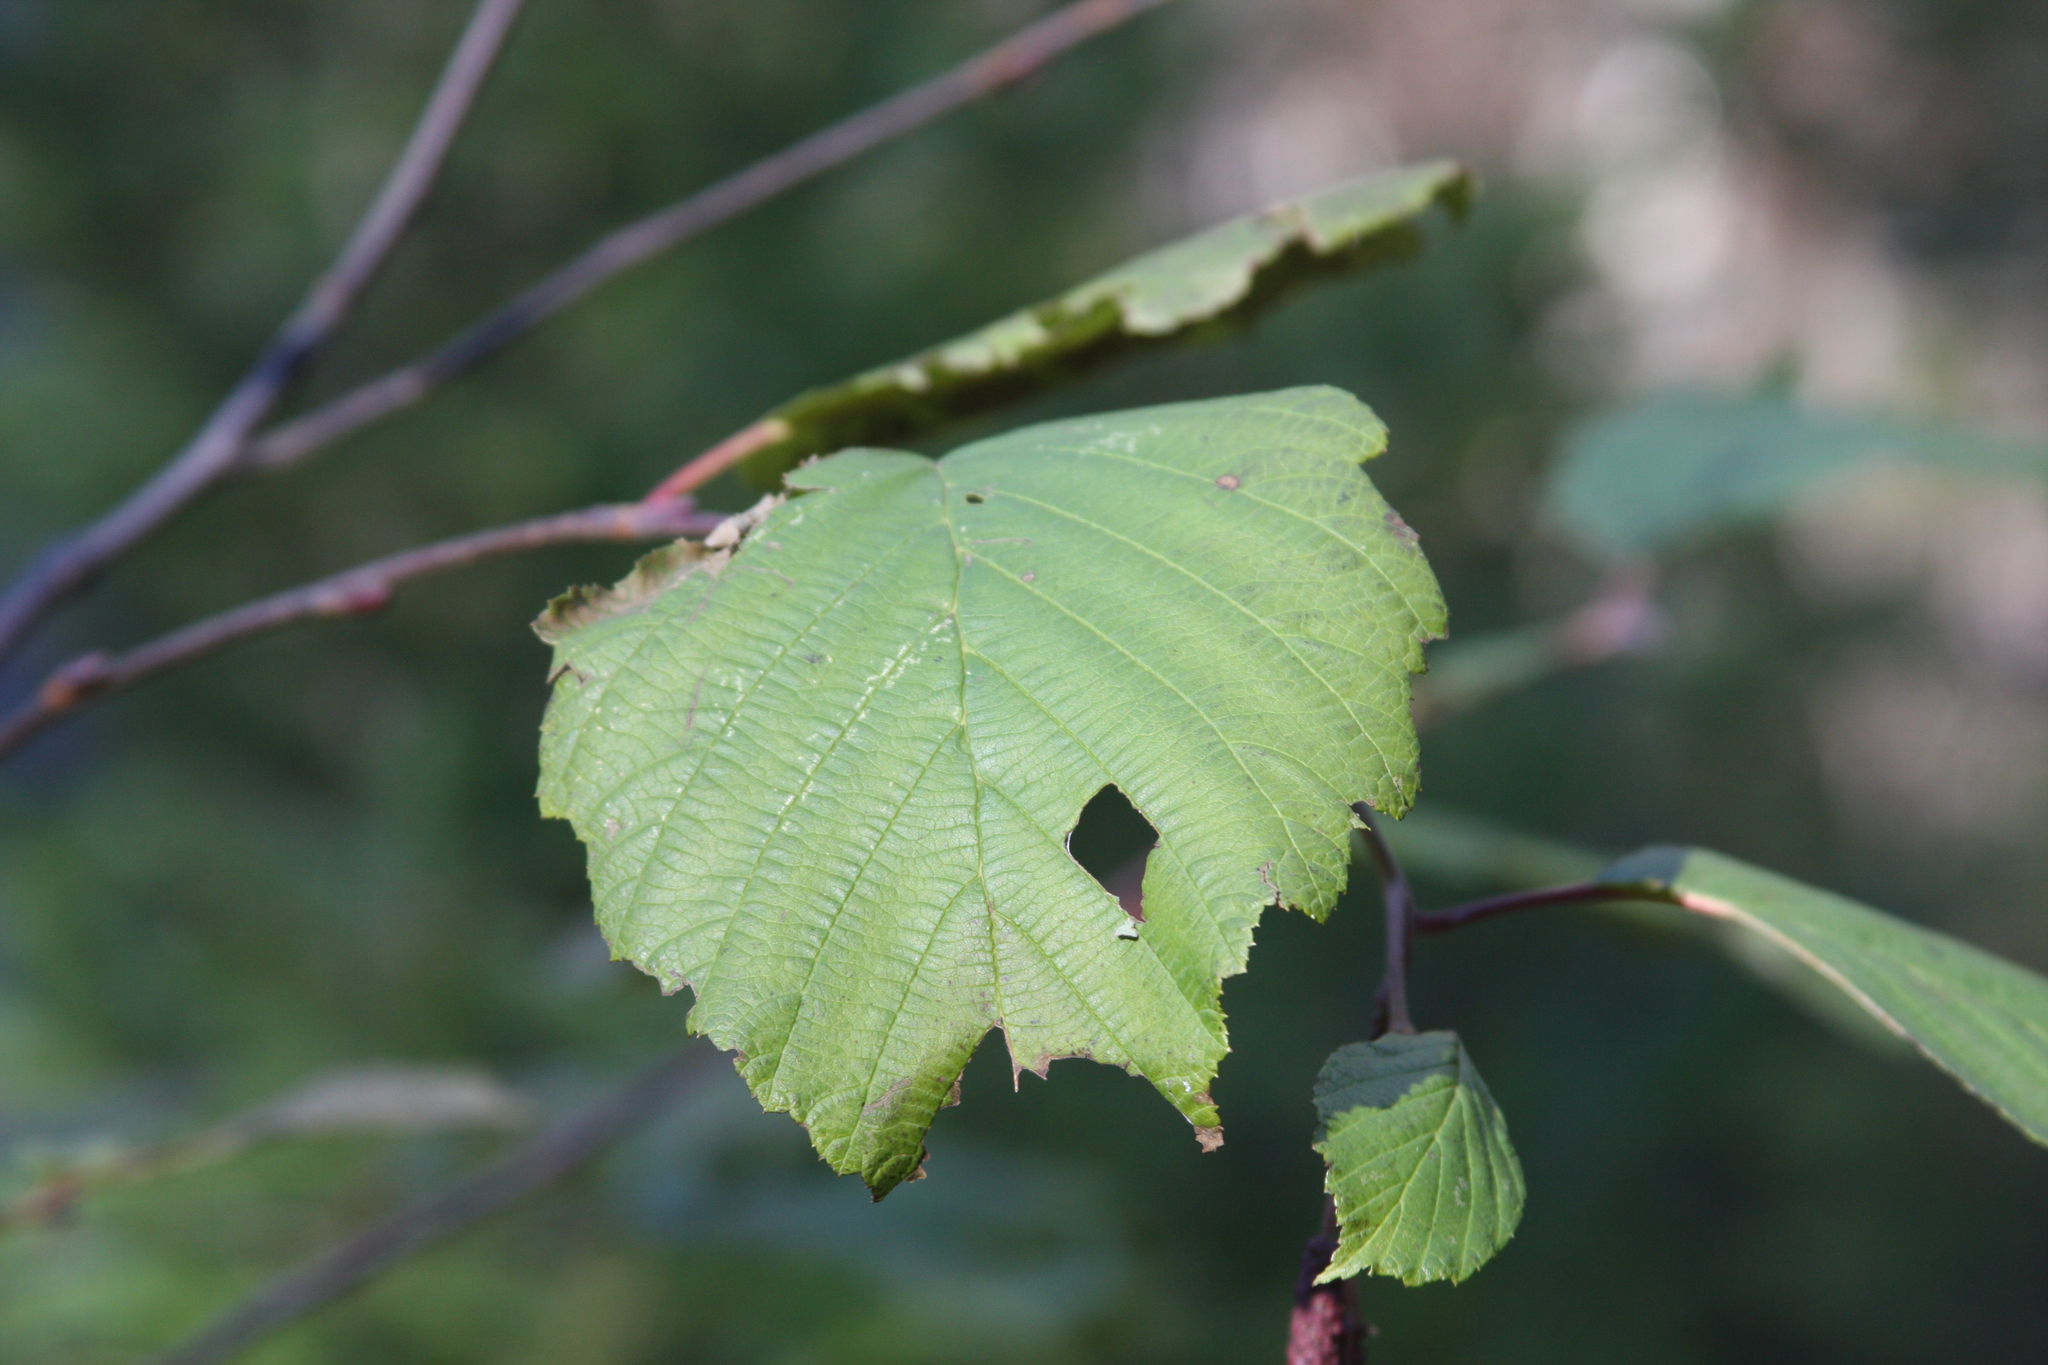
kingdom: Plantae
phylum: Tracheophyta
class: Magnoliopsida
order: Fagales
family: Betulaceae
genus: Alnus
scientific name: Alnus incana
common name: Grey alder
